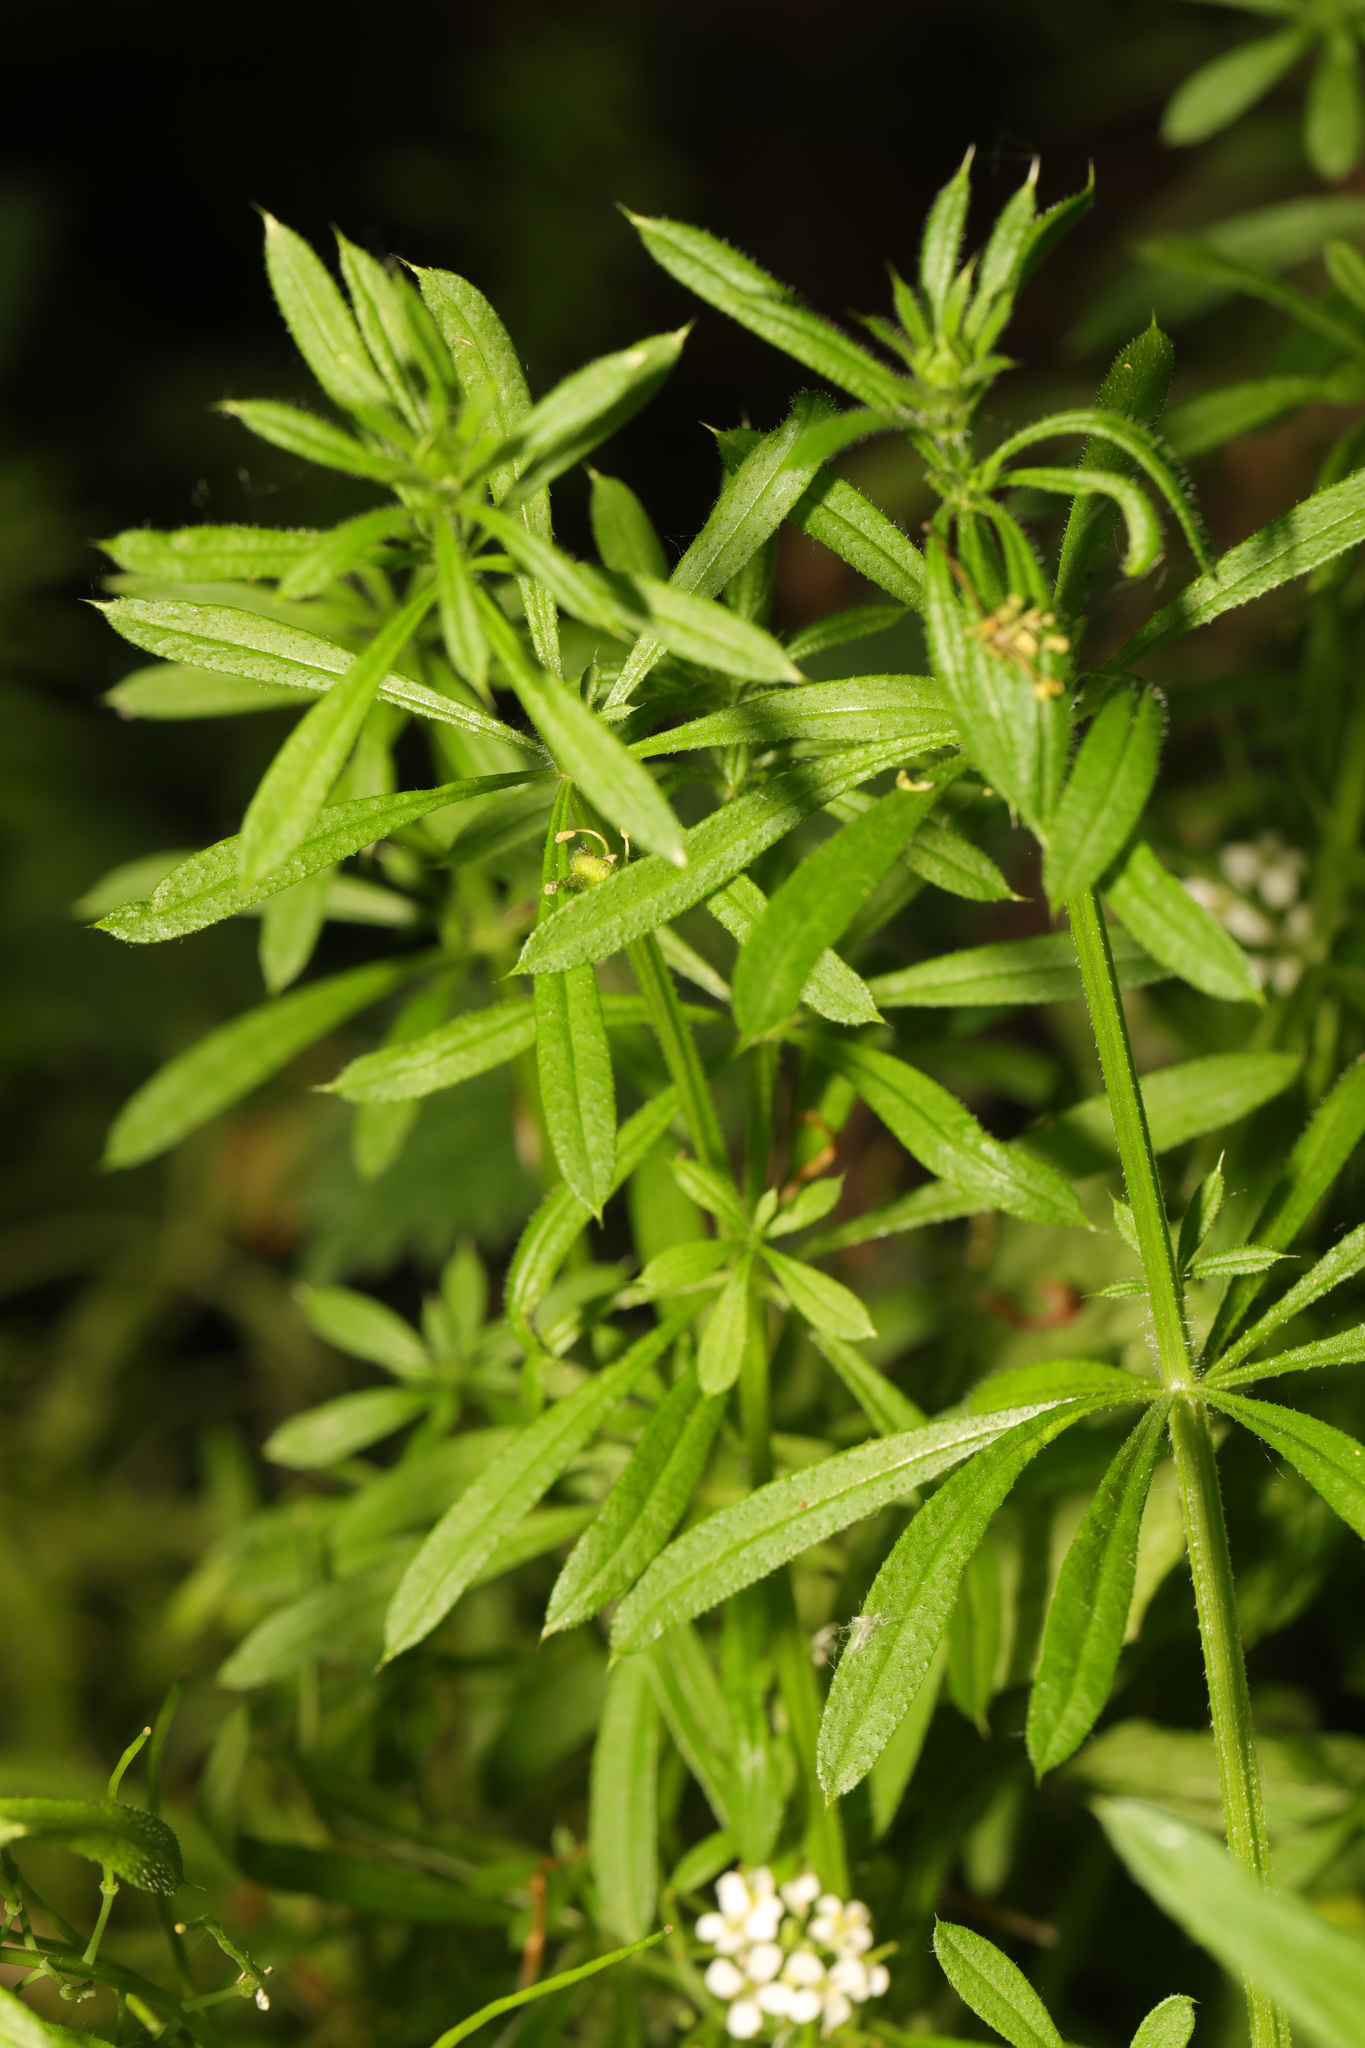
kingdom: Plantae
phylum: Tracheophyta
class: Magnoliopsida
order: Gentianales
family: Rubiaceae
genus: Galium
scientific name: Galium aparine
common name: Cleavers
